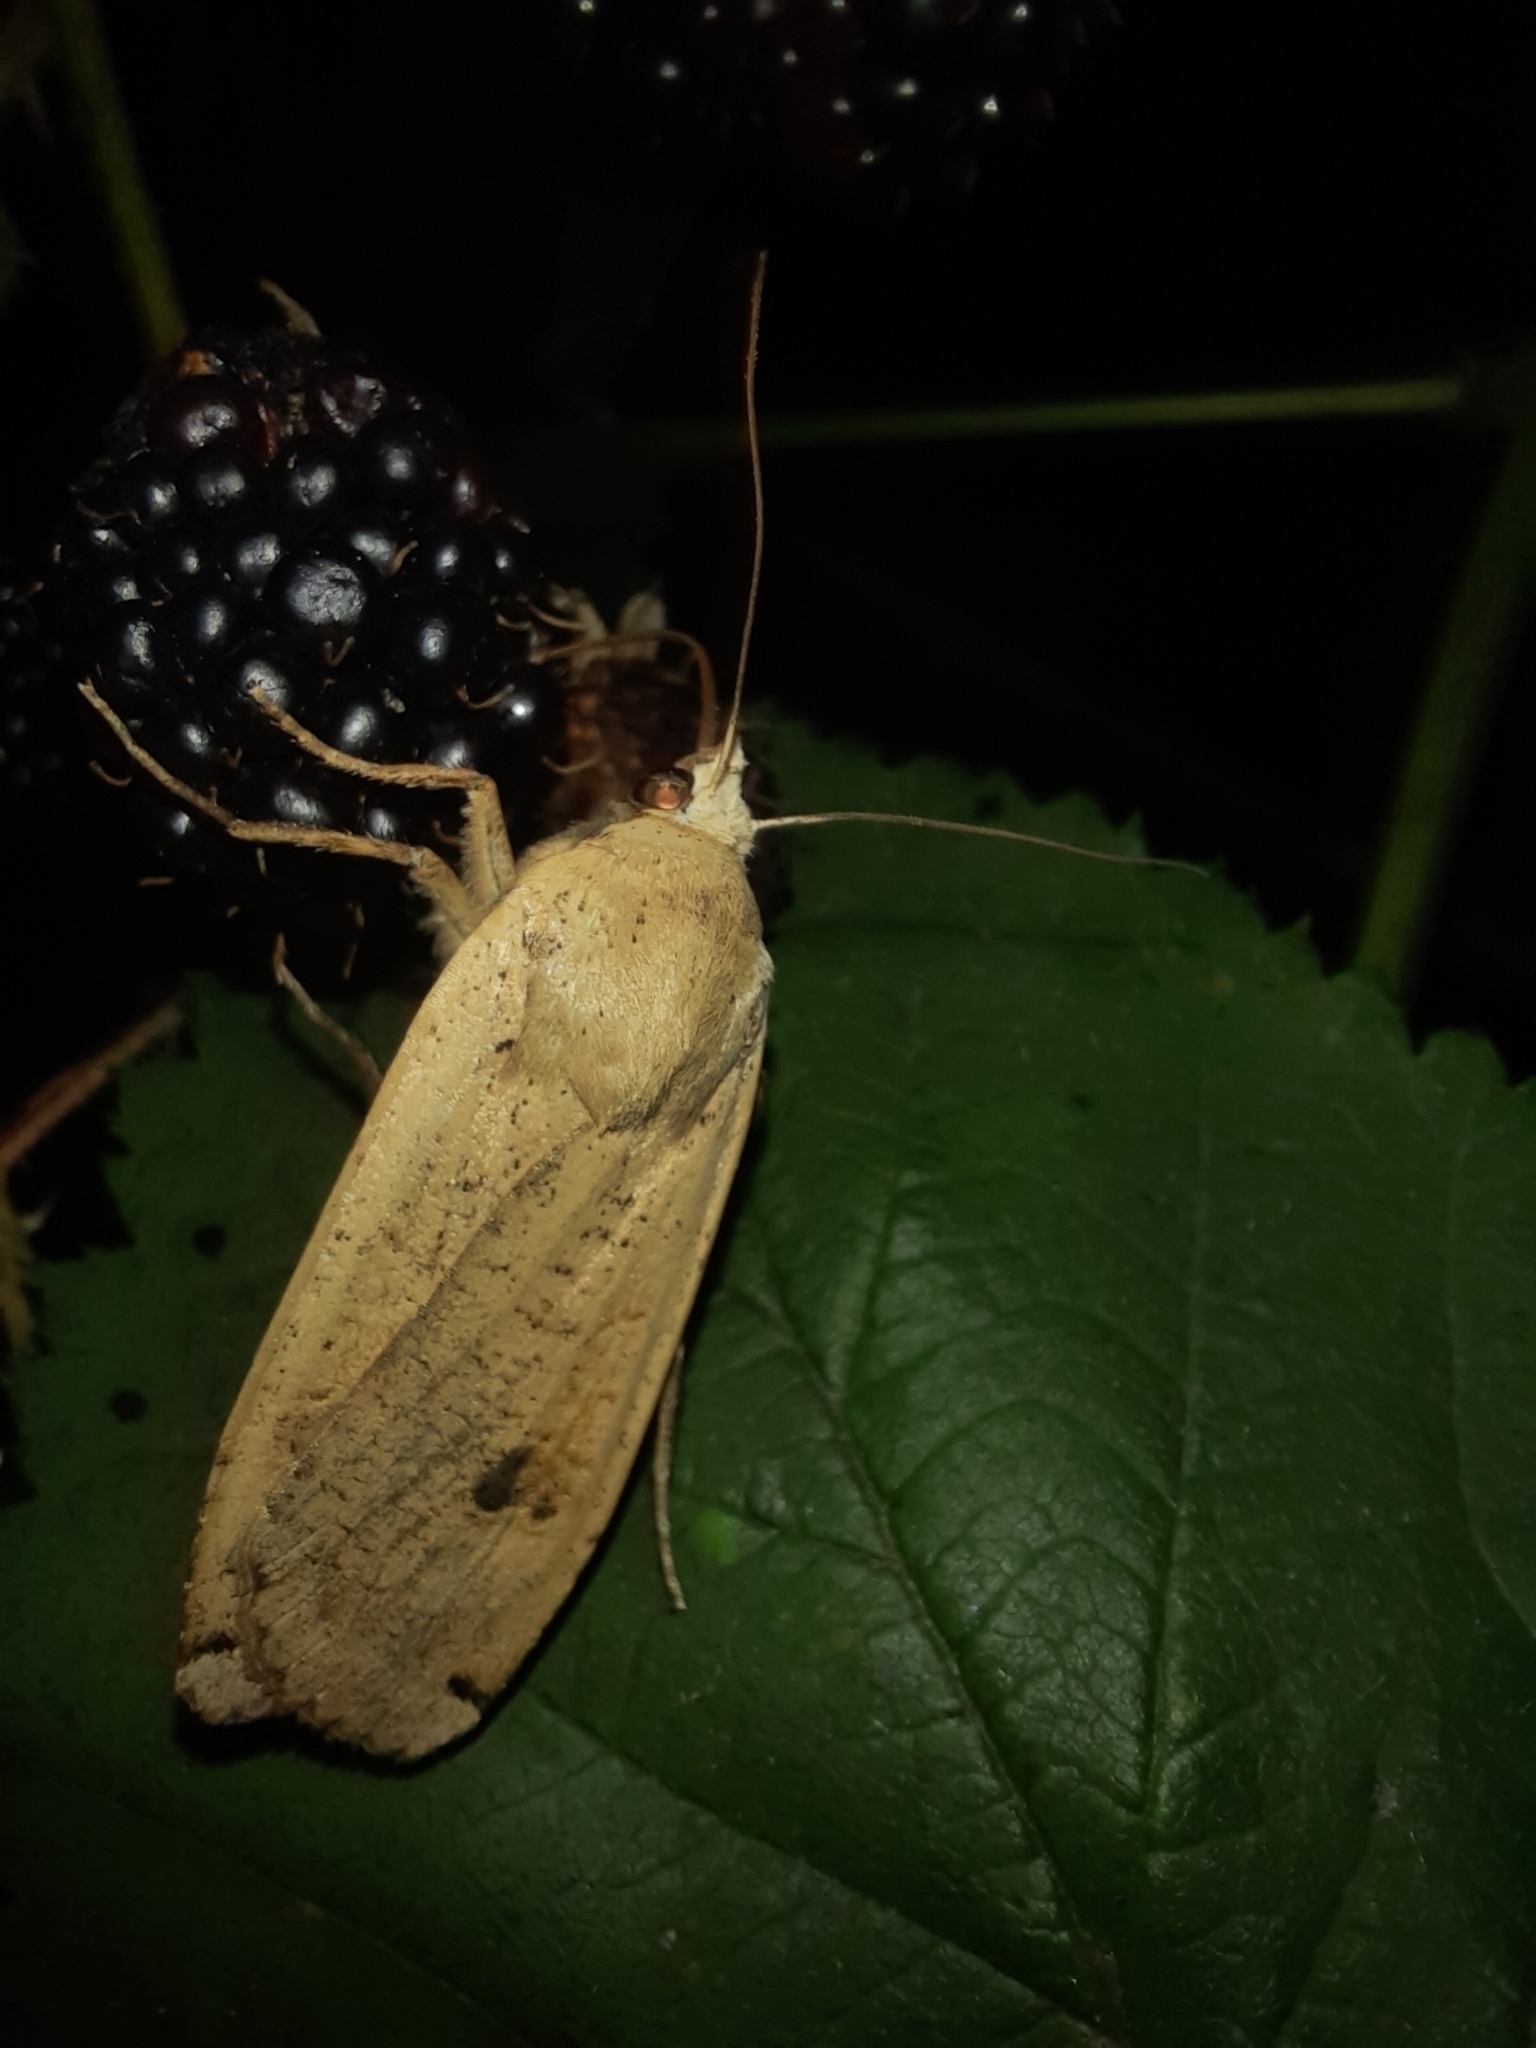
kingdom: Animalia
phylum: Arthropoda
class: Insecta
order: Lepidoptera
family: Noctuidae
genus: Noctua
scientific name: Noctua pronuba
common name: Large yellow underwing
